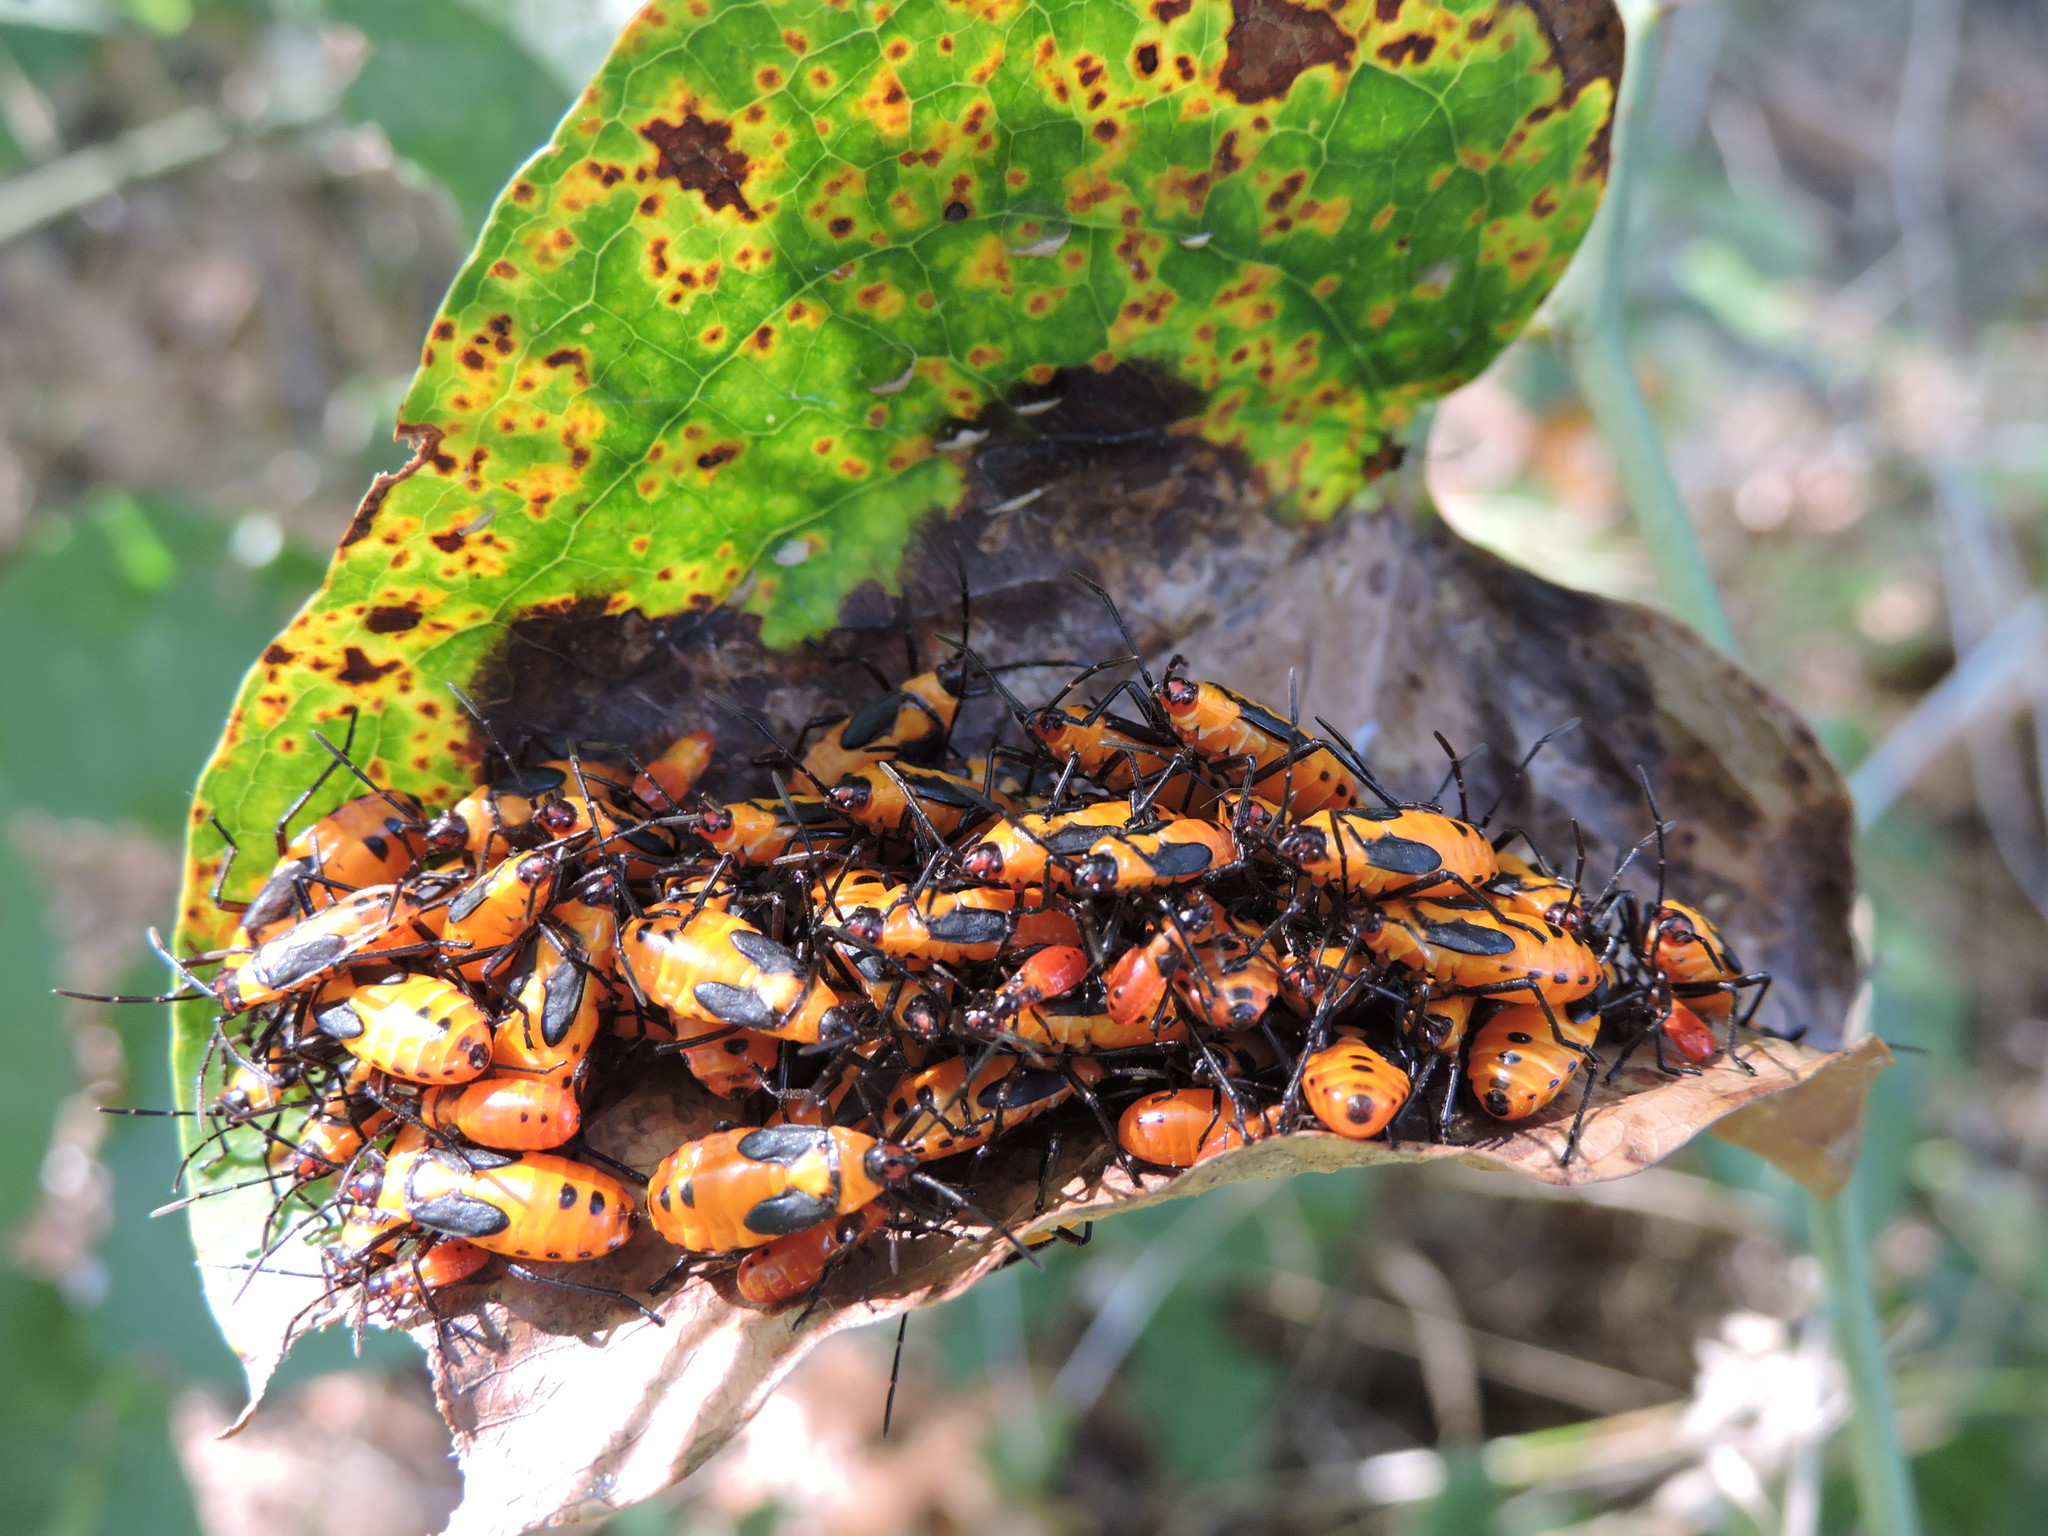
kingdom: Animalia
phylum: Arthropoda
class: Insecta
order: Hemiptera
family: Lygaeidae
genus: Oncopeltus
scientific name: Oncopeltus fasciatus
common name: Large milkweed bug
